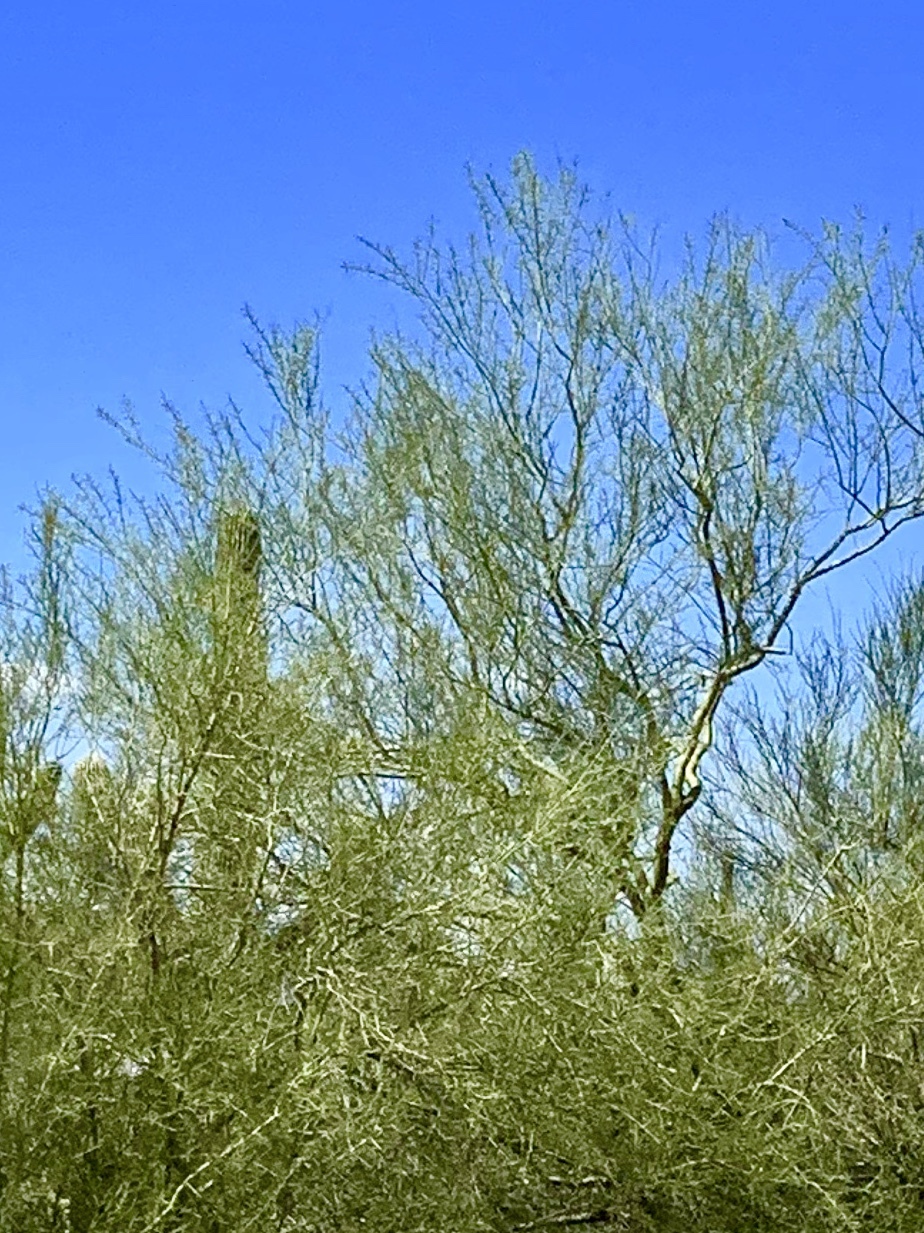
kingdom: Plantae
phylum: Tracheophyta
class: Magnoliopsida
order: Fabales
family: Fabaceae
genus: Parkinsonia
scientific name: Parkinsonia microphylla
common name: Yellow paloverde
